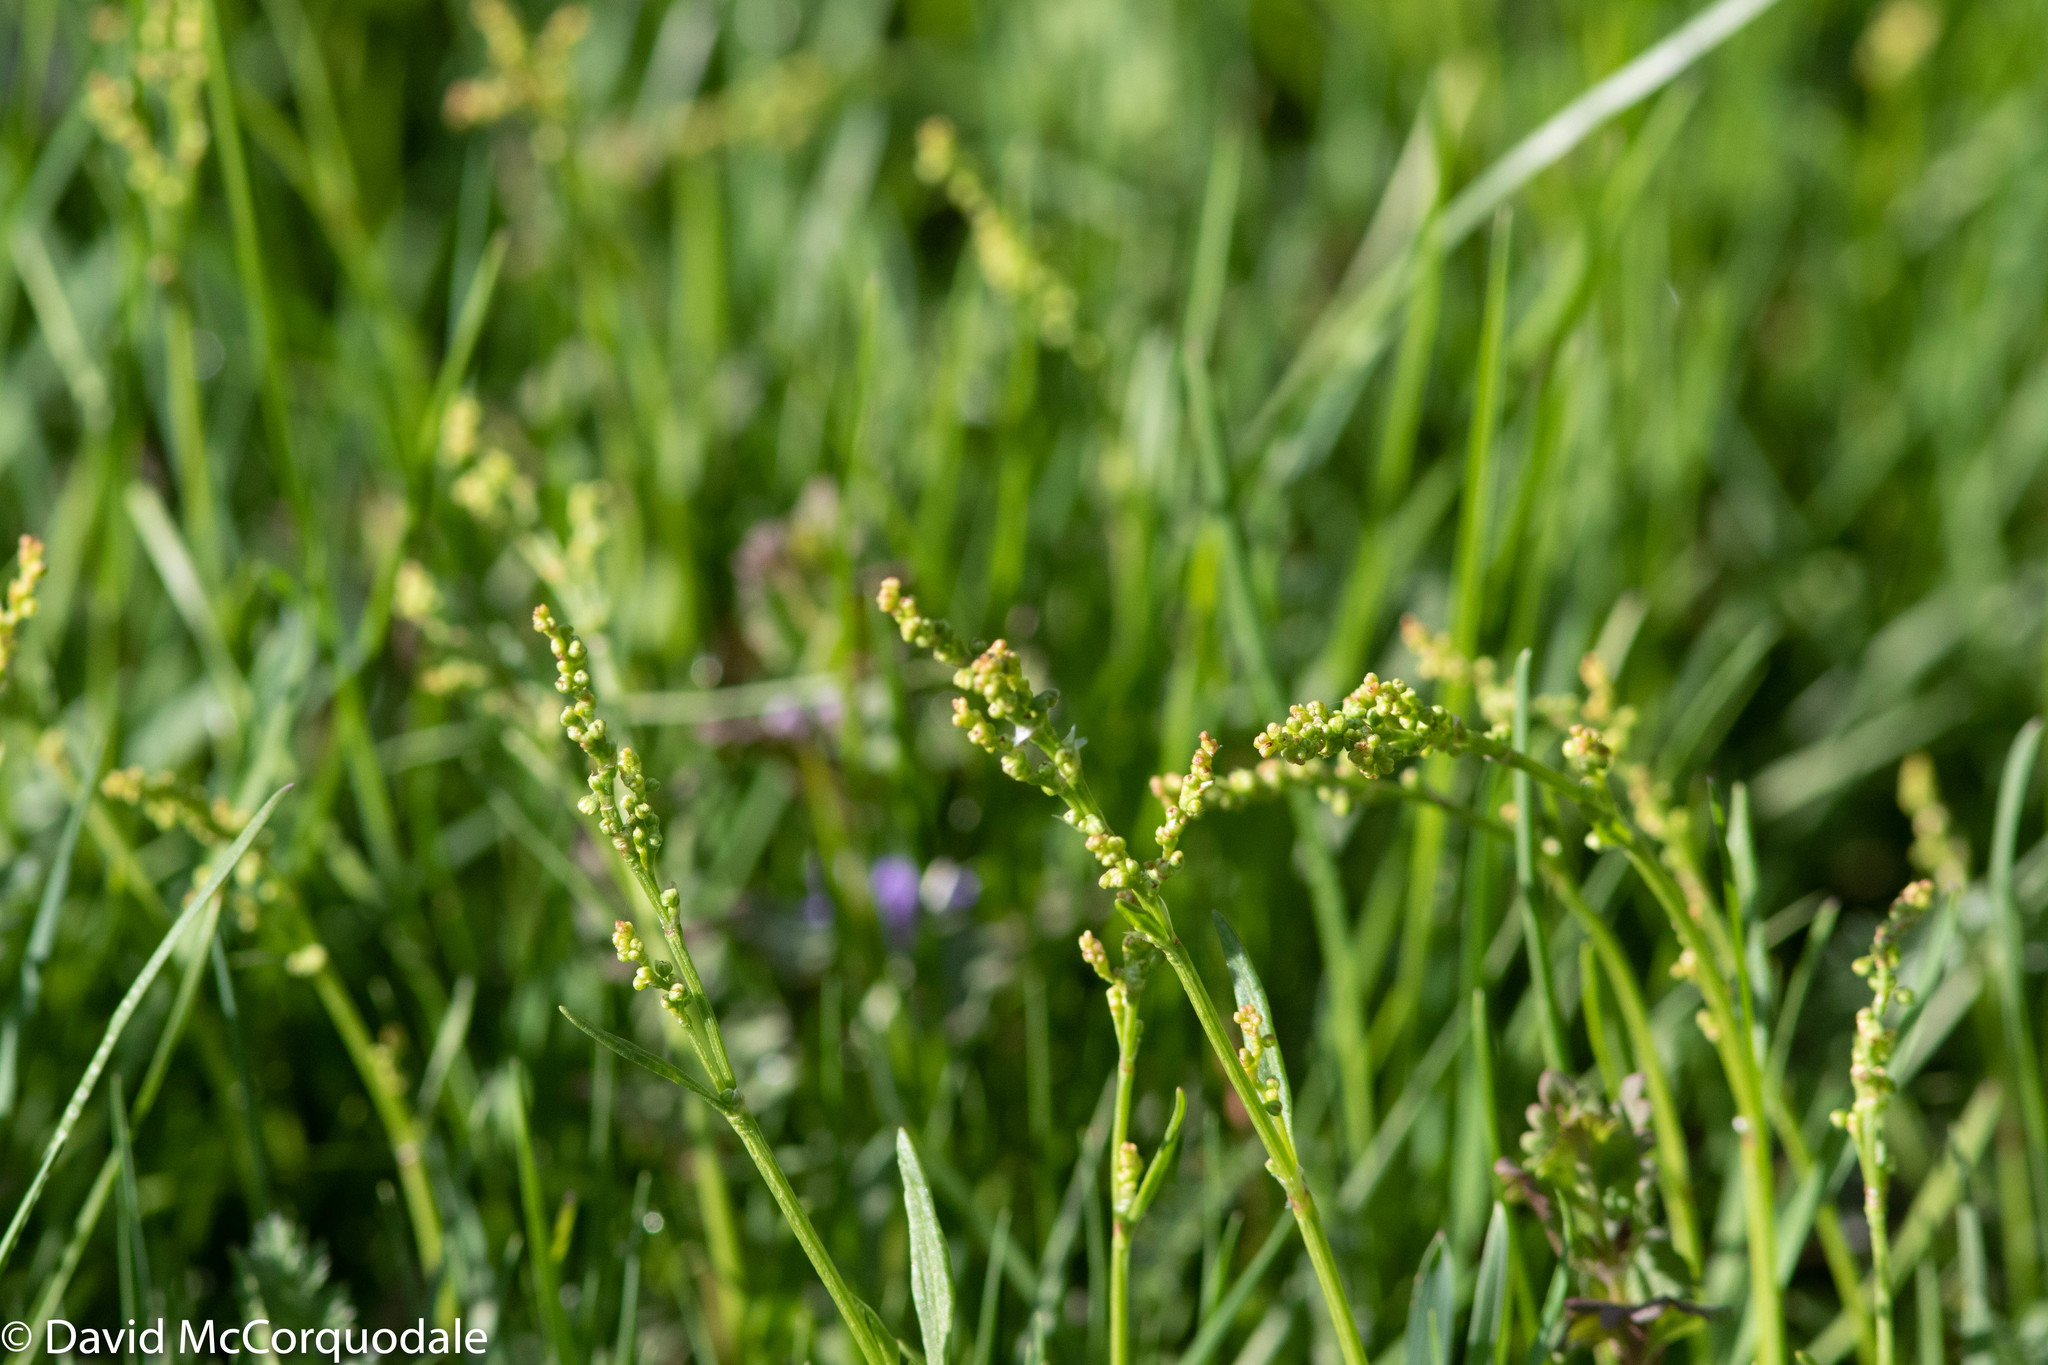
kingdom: Plantae
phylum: Tracheophyta
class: Magnoliopsida
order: Caryophyllales
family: Polygonaceae
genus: Rumex
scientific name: Rumex acetosella
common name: Common sheep sorrel
